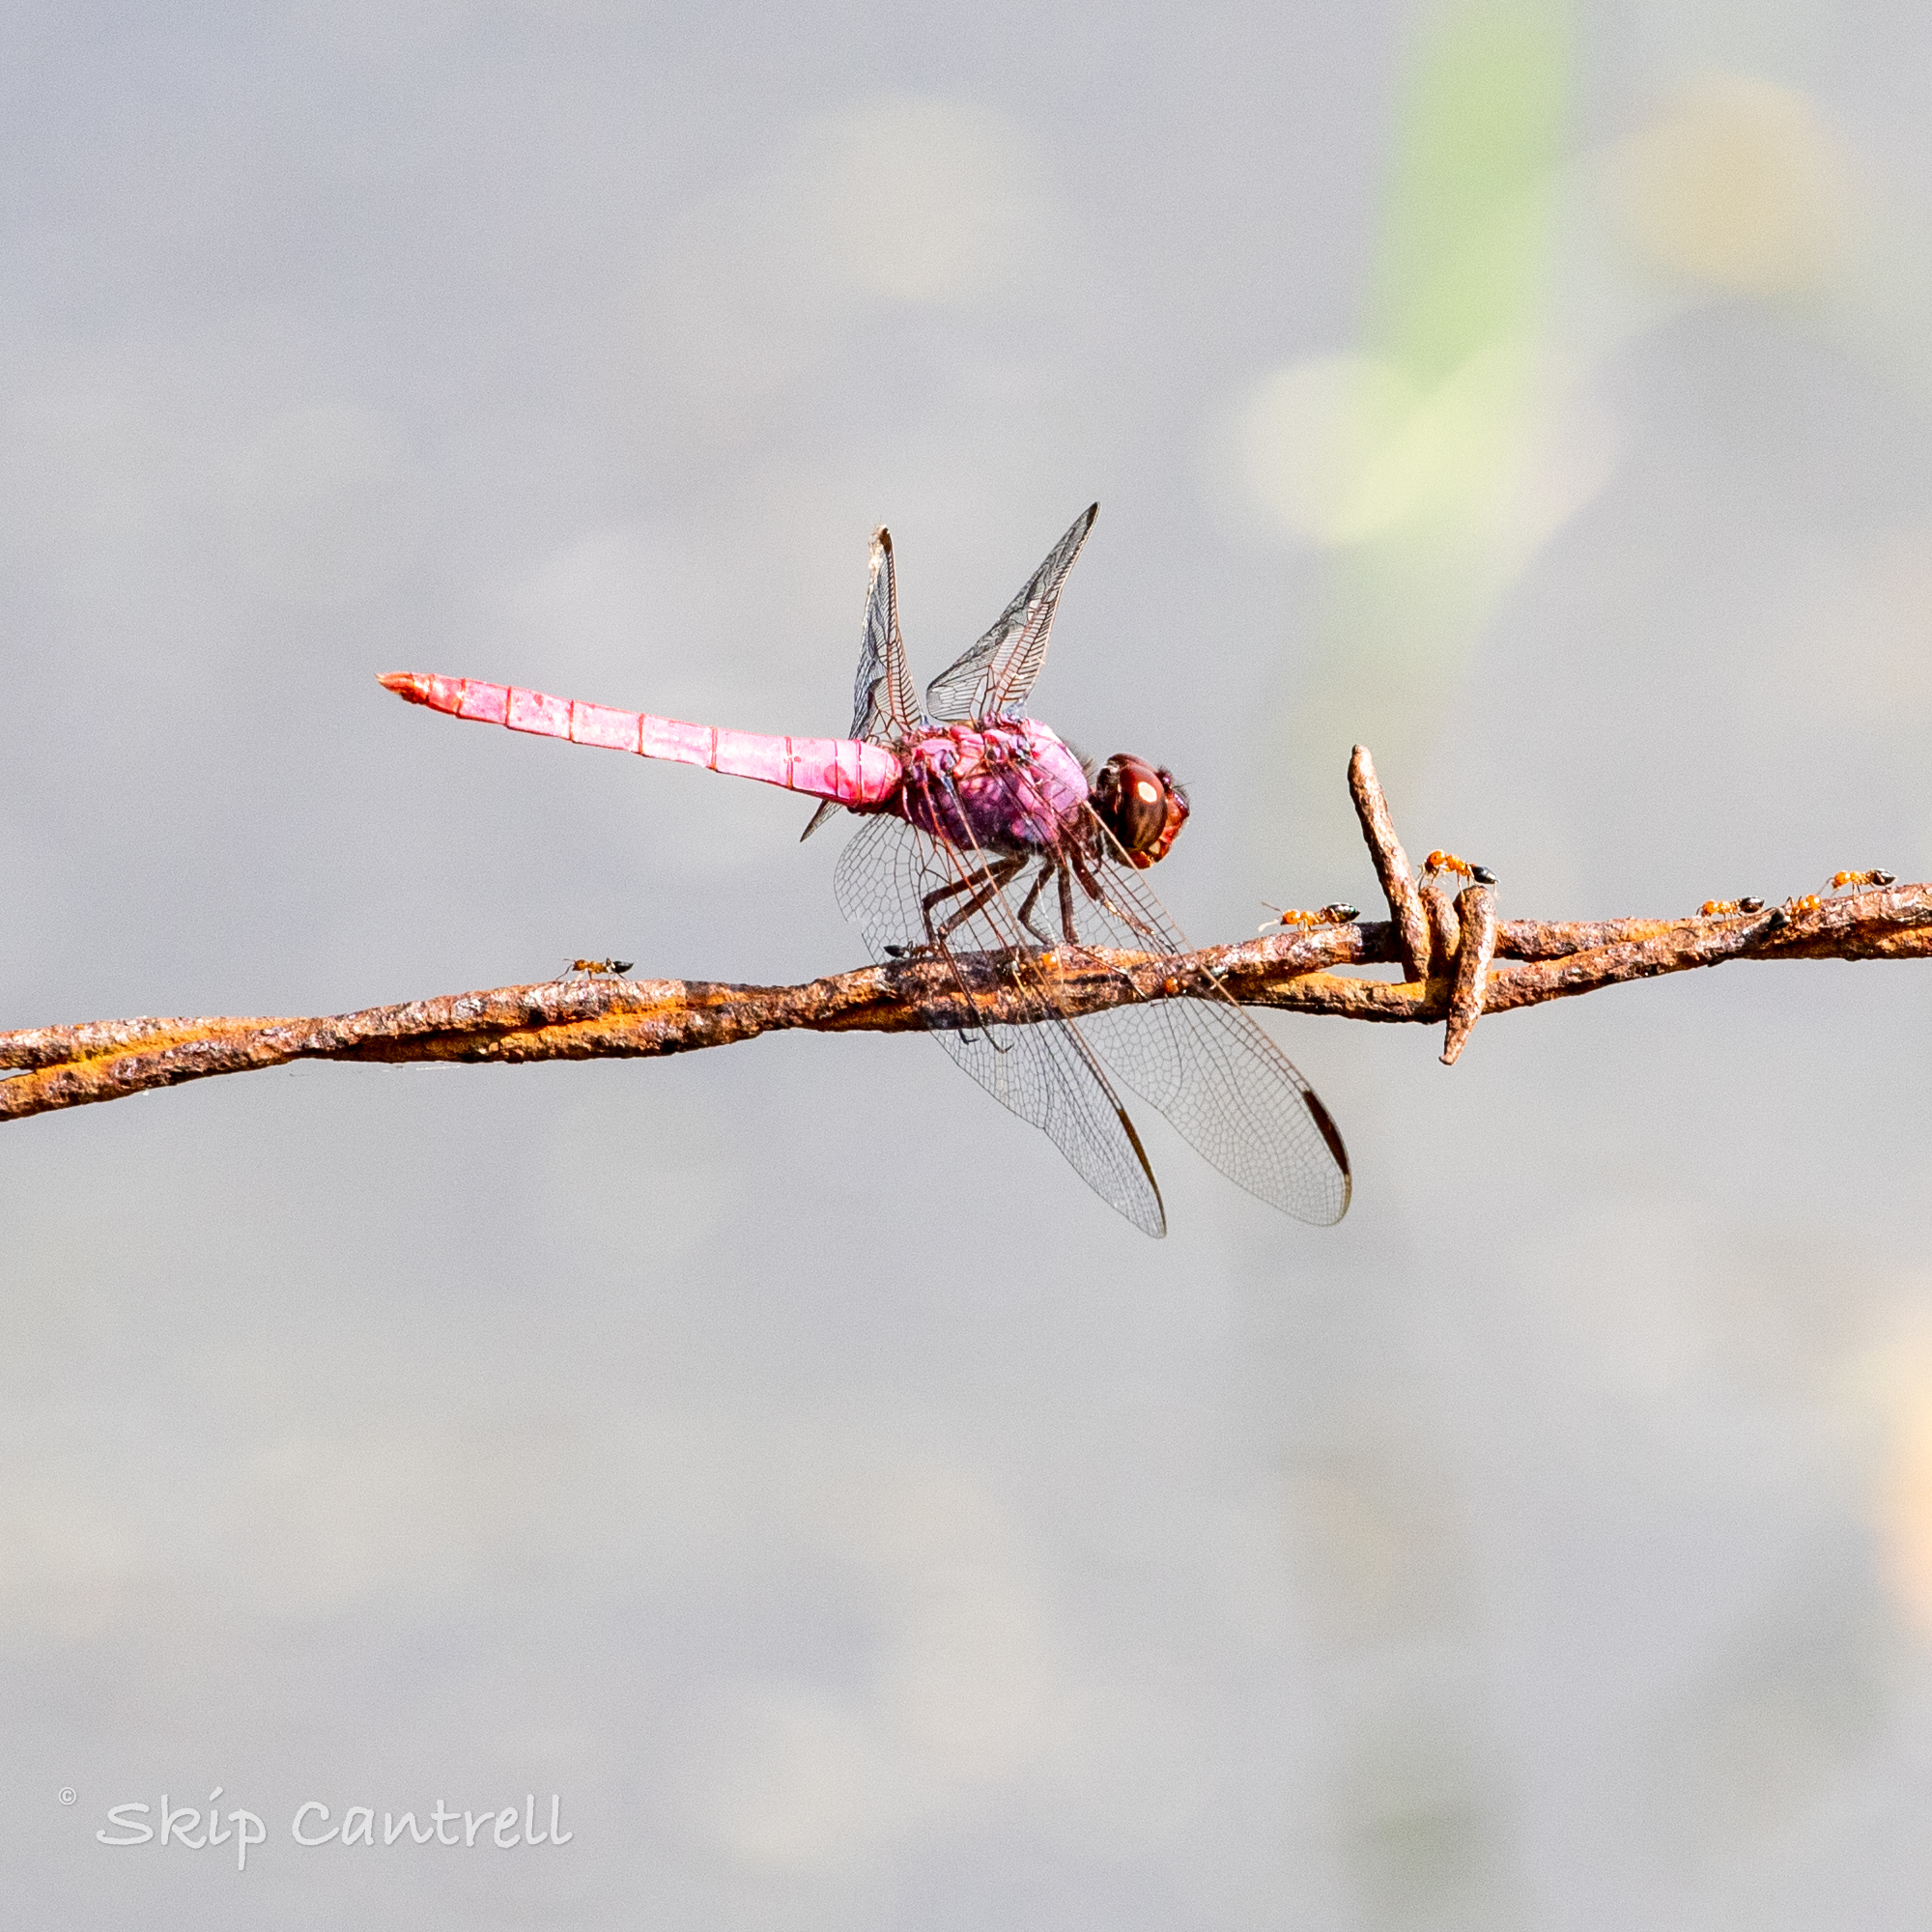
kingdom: Animalia
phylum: Arthropoda
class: Insecta
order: Odonata
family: Libellulidae
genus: Orthemis
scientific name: Orthemis ferruginea
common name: Roseate skimmer
